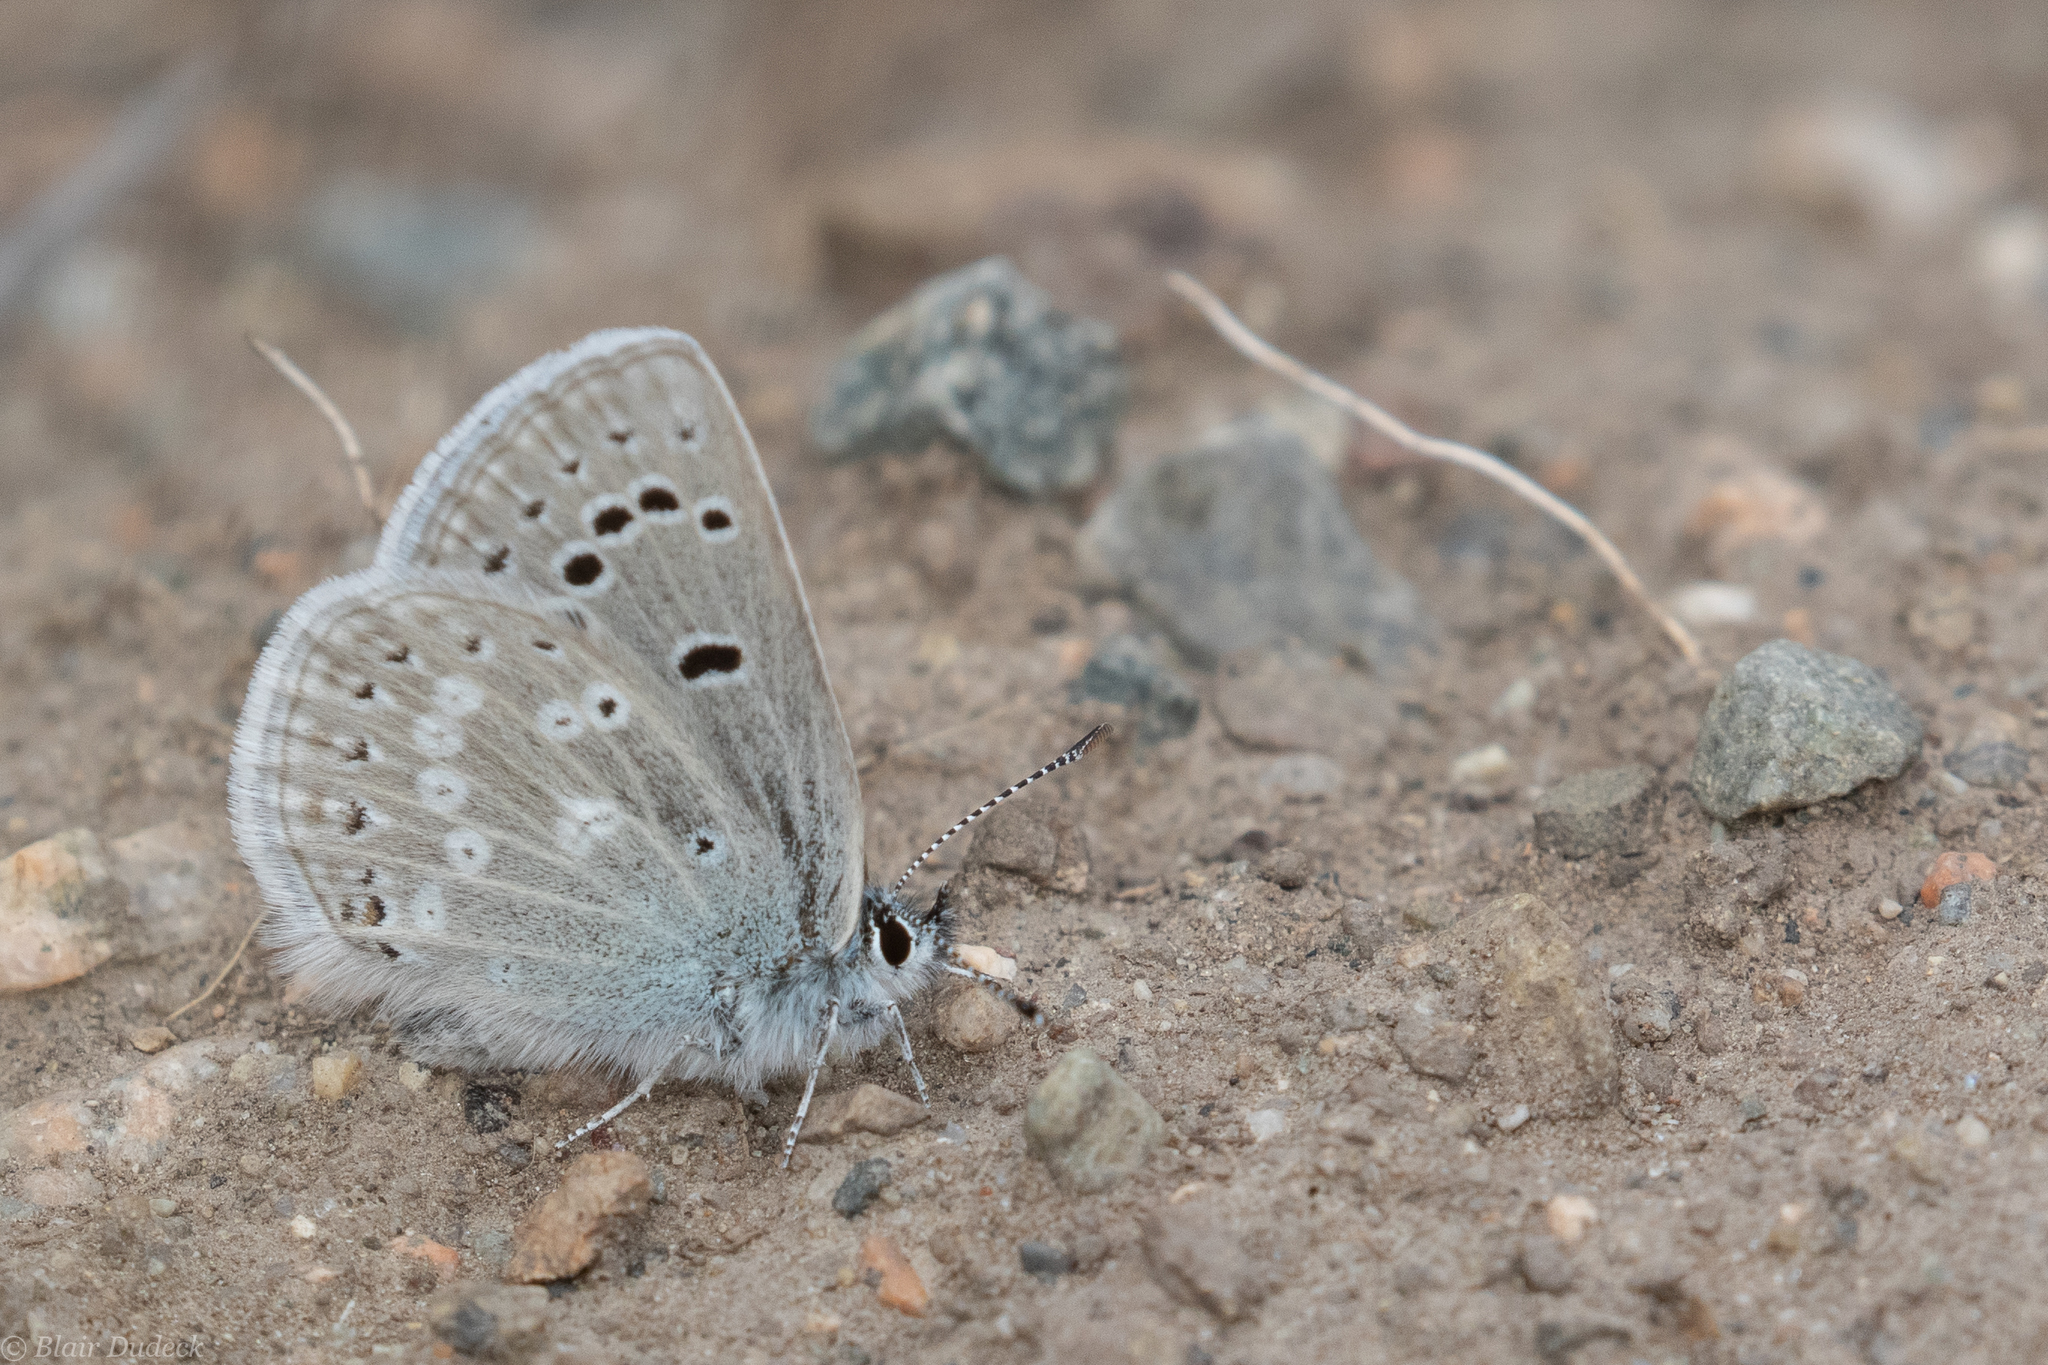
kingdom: Animalia
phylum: Arthropoda
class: Insecta
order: Lepidoptera
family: Lycaenidae
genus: Icaricia
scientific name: Icaricia icarioides
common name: Boisduval's blue
